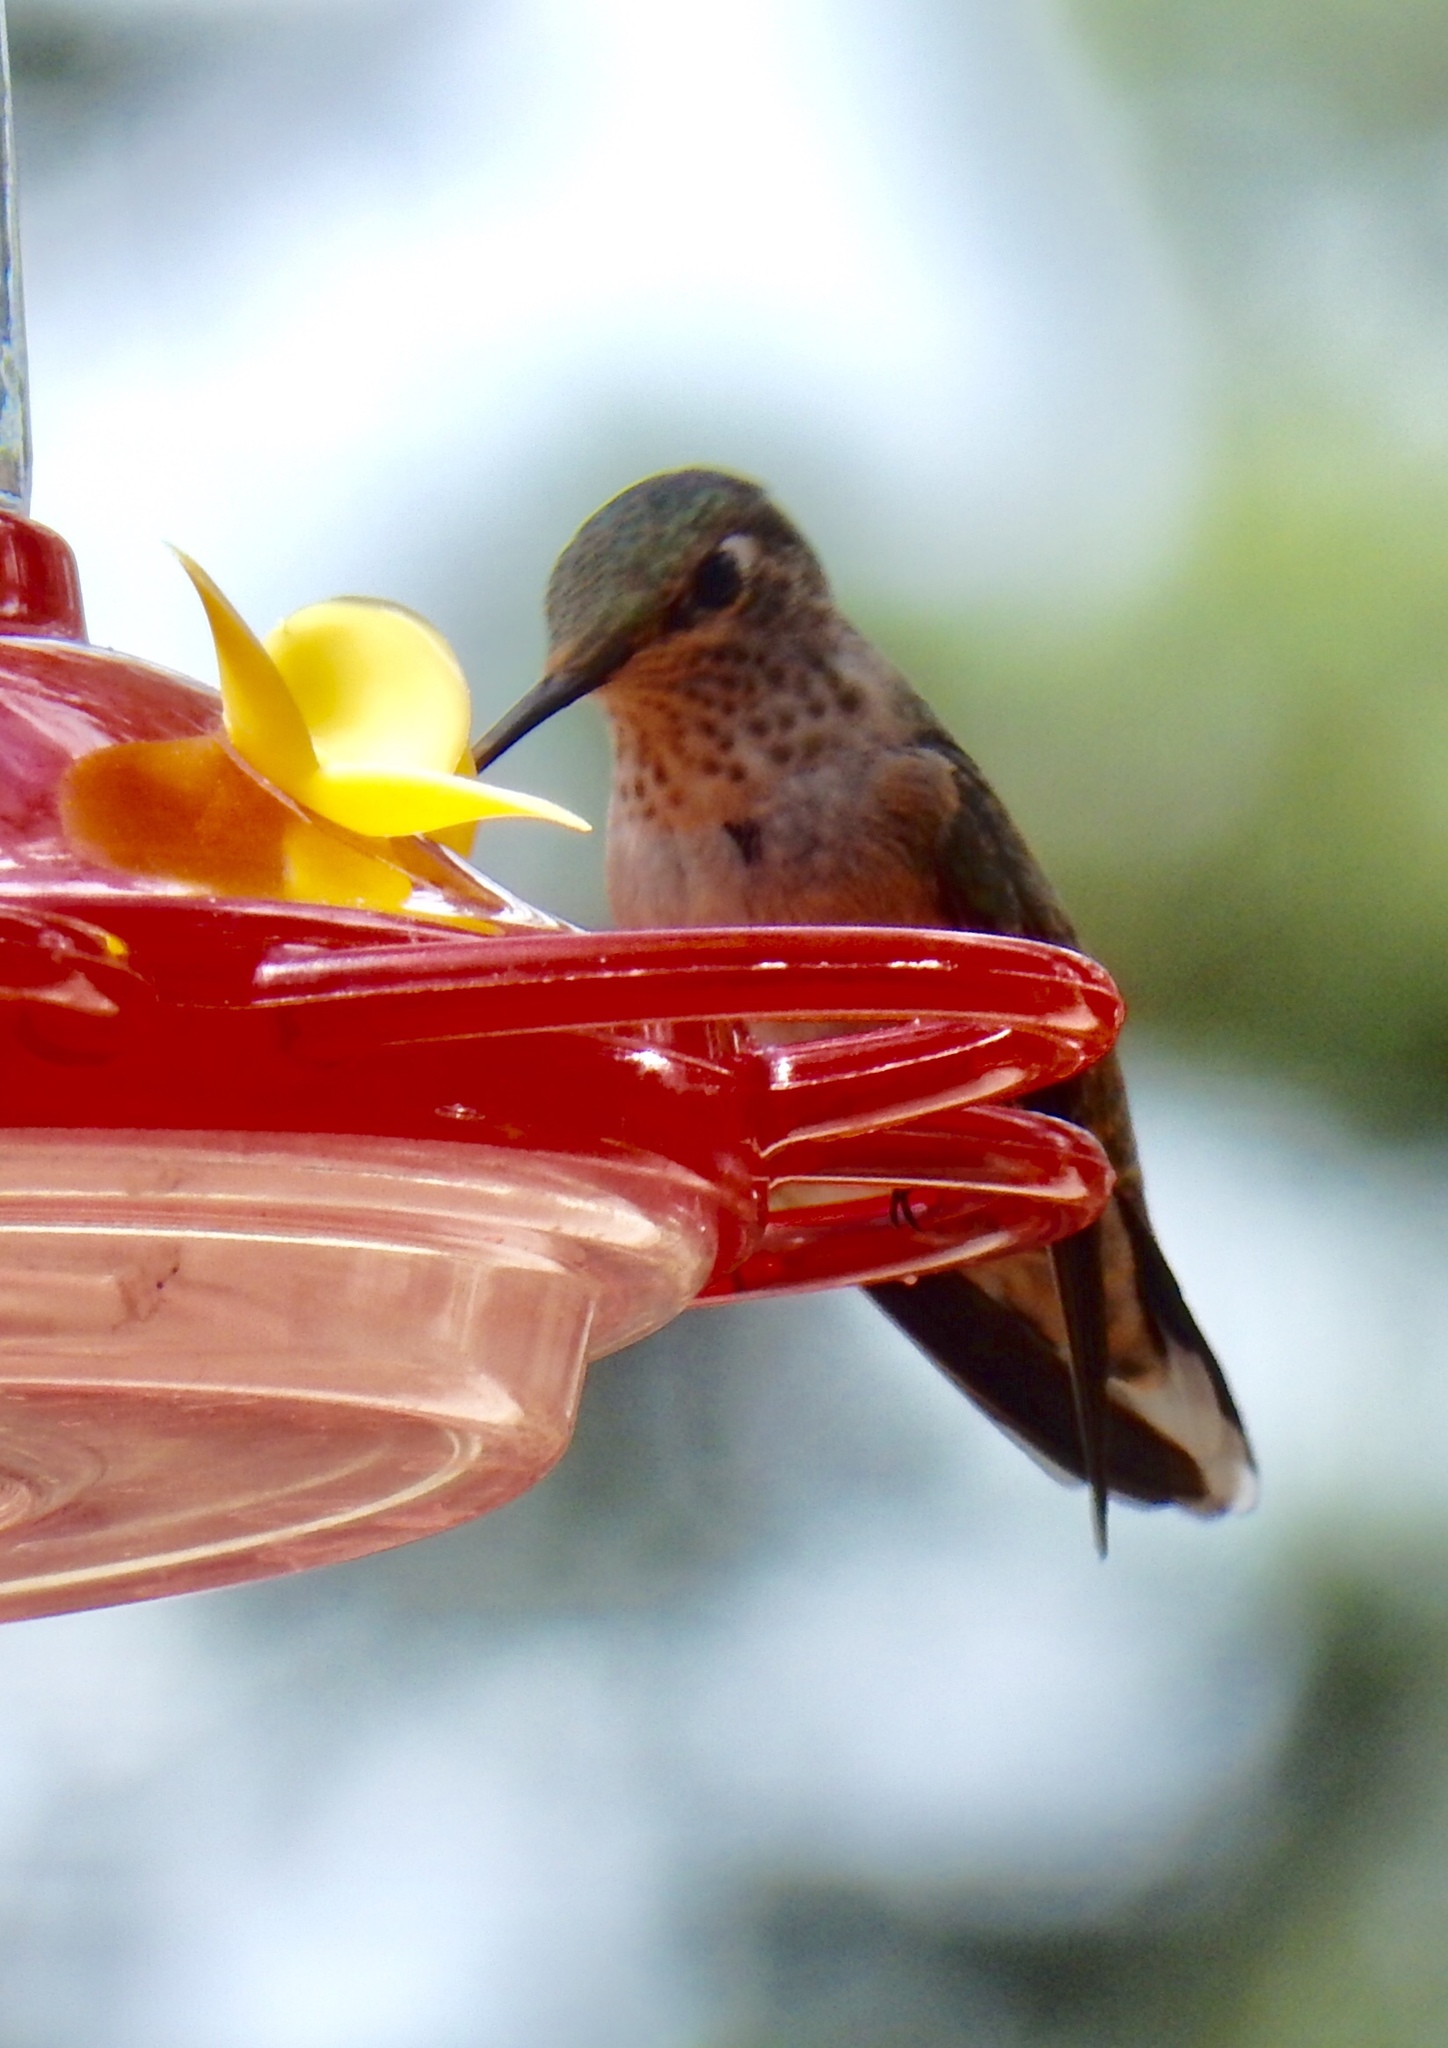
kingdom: Animalia
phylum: Chordata
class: Aves
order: Apodiformes
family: Trochilidae
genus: Selasphorus
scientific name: Selasphorus platycercus
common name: Broad-tailed hummingbird
